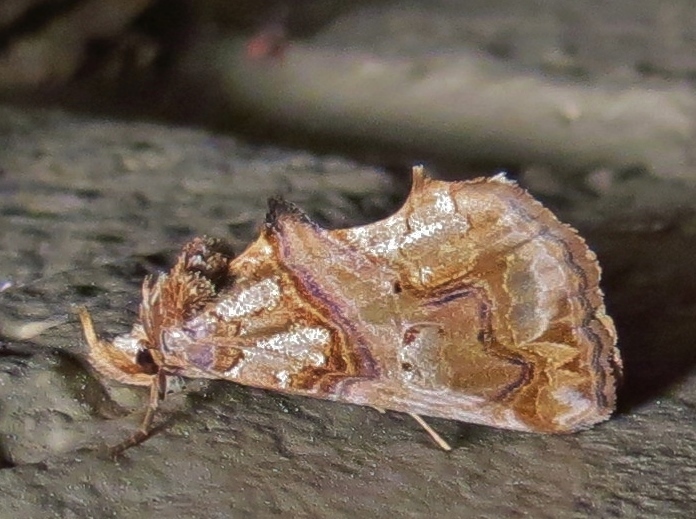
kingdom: Animalia
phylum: Arthropoda
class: Insecta
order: Lepidoptera
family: Erebidae
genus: Plusiodonta
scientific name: Plusiodonta compressipalpis
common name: Moonseed moth
